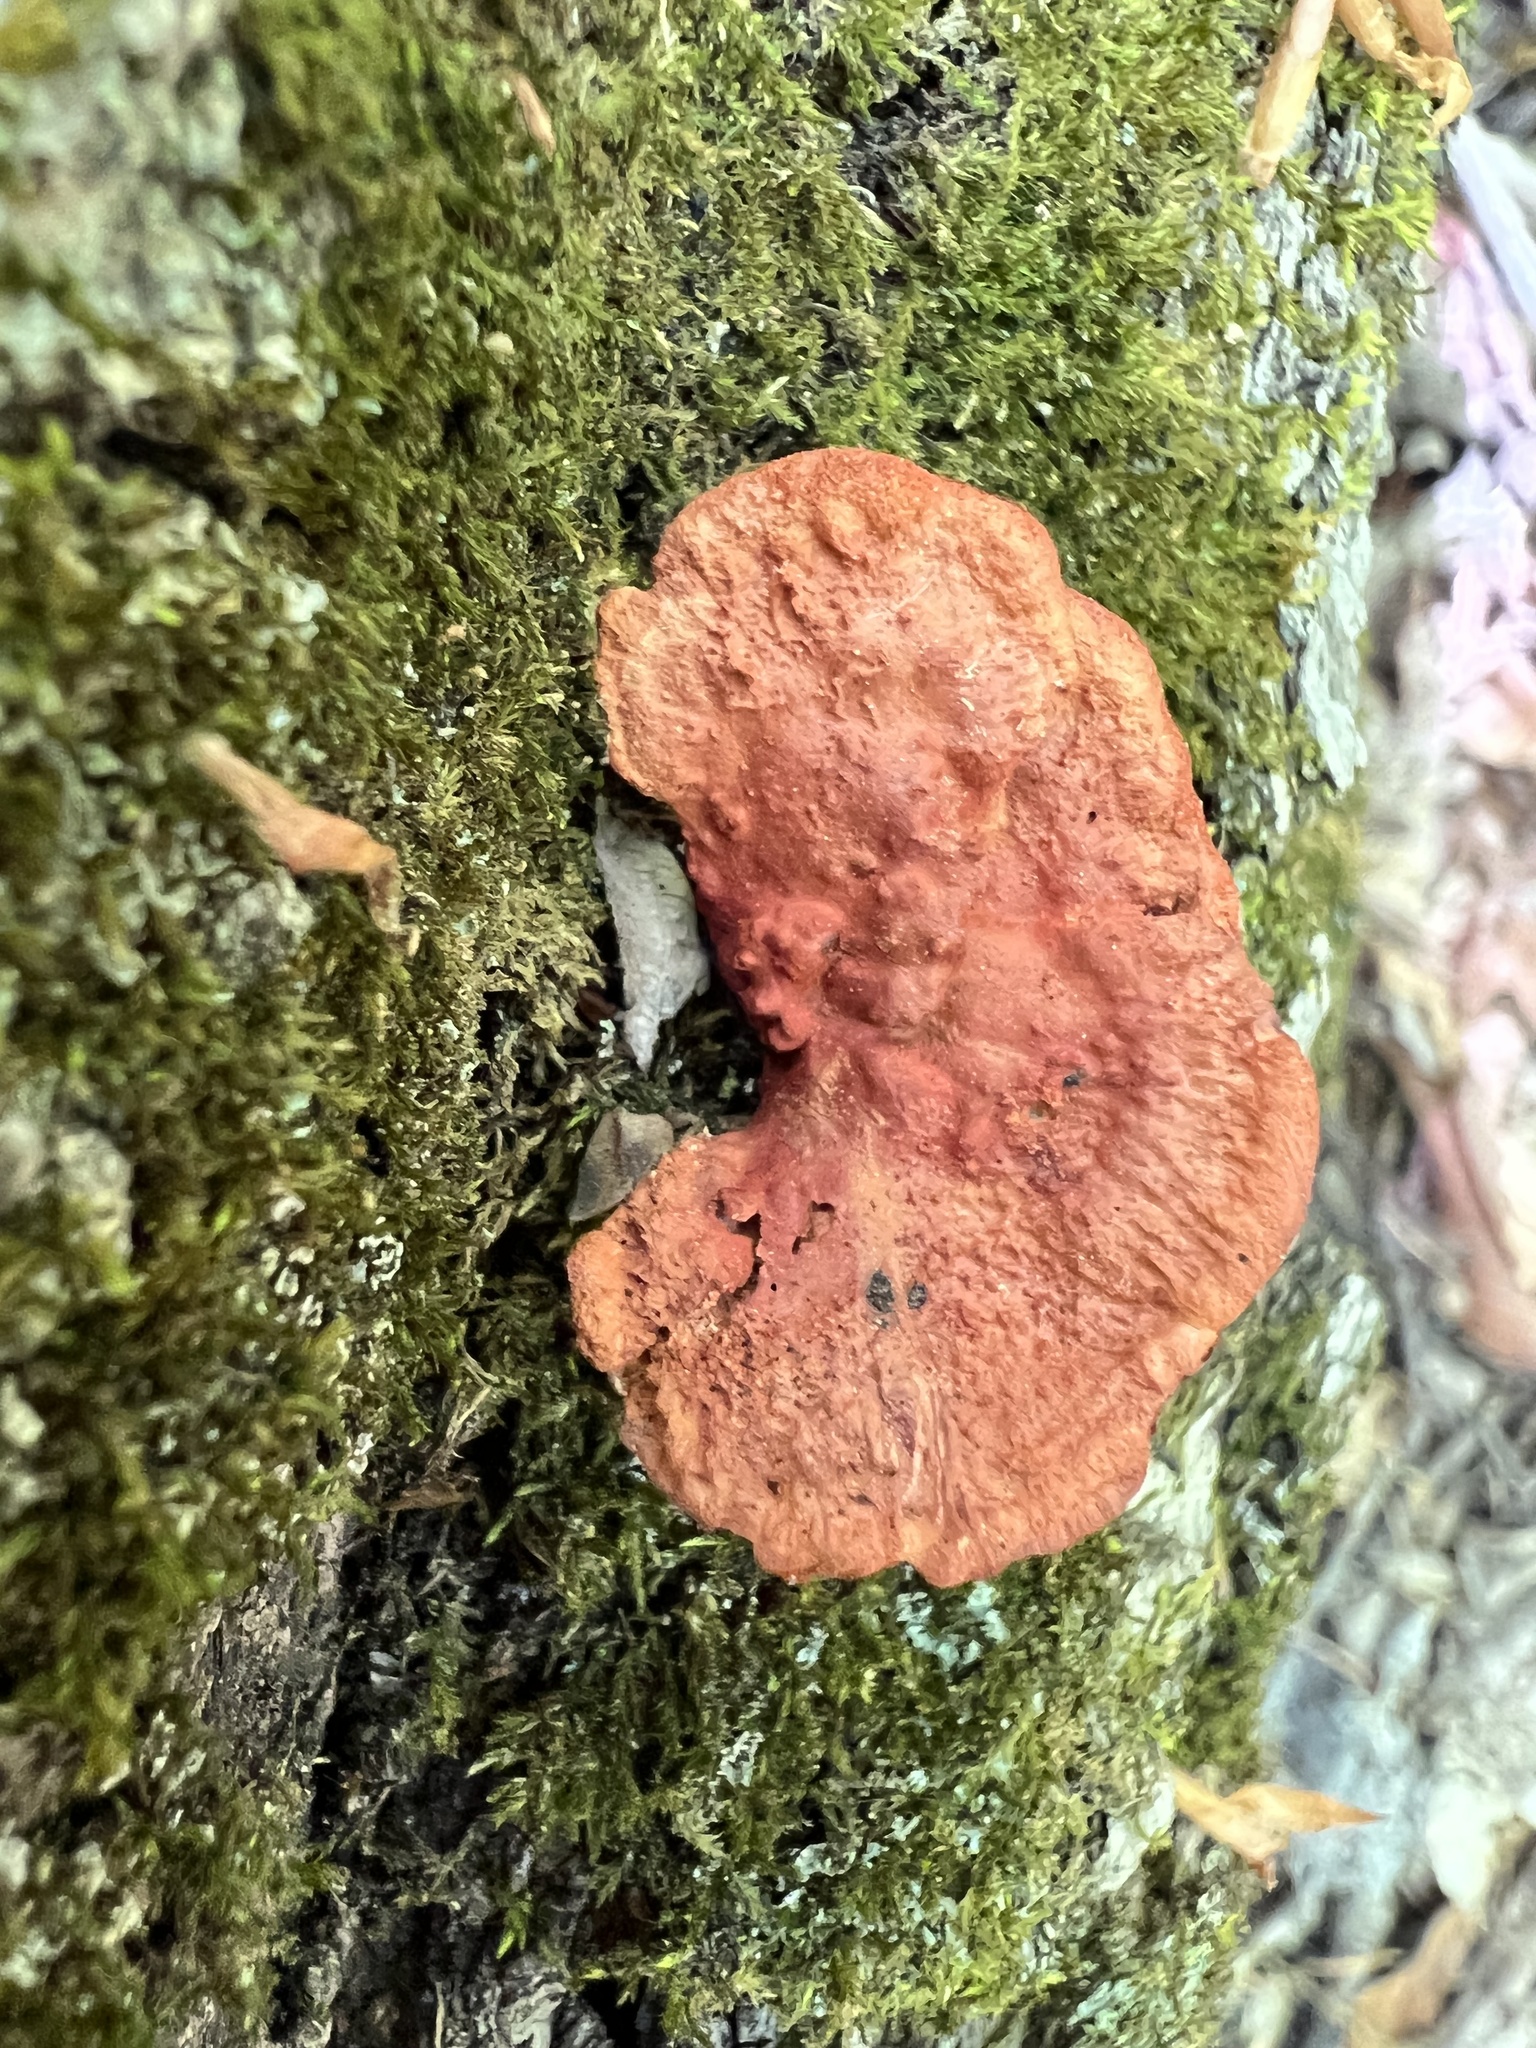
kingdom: Fungi
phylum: Basidiomycota
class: Agaricomycetes
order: Polyporales
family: Polyporaceae
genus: Trametes
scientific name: Trametes cinnabarina
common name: Northern cinnabar polypore
